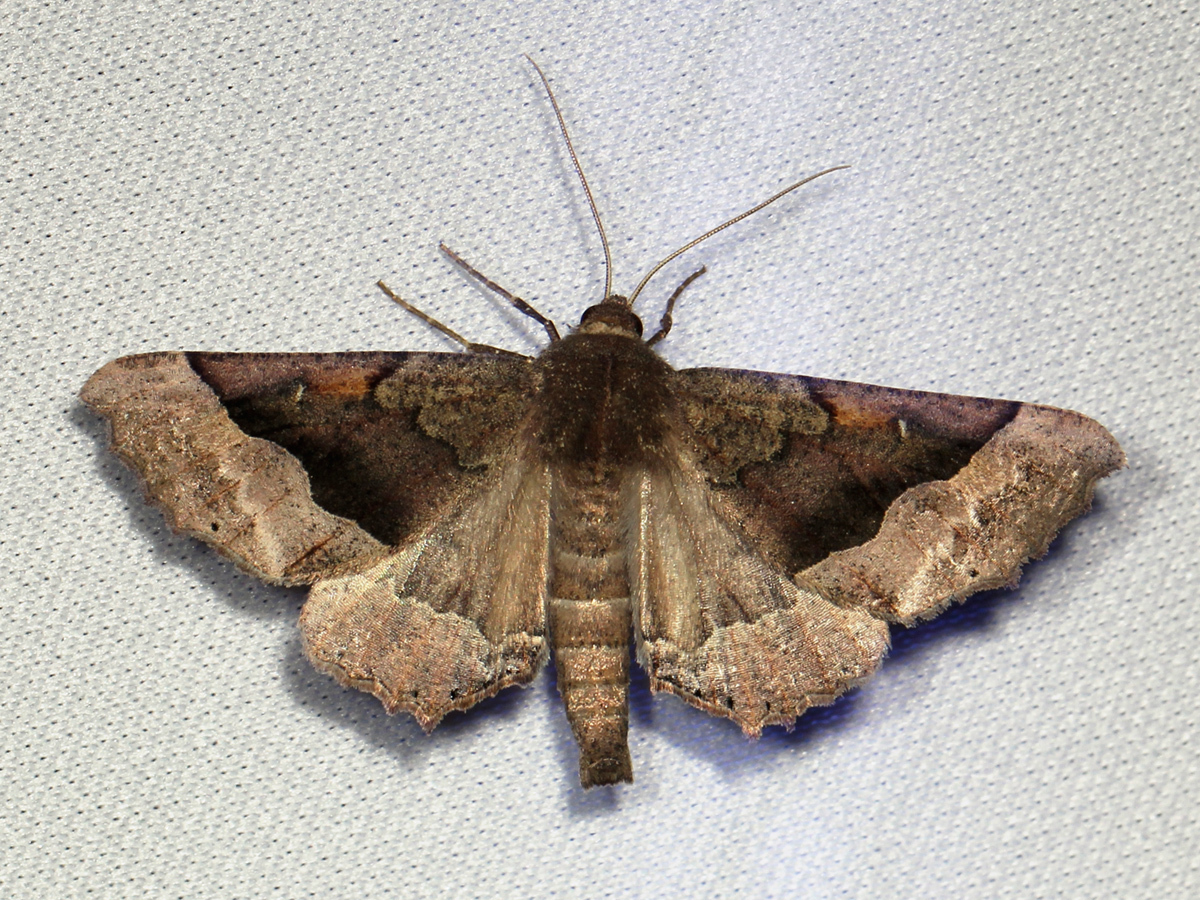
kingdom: Animalia
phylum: Arthropoda
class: Insecta
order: Lepidoptera
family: Geometridae
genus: Pero
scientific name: Pero behrensaria
